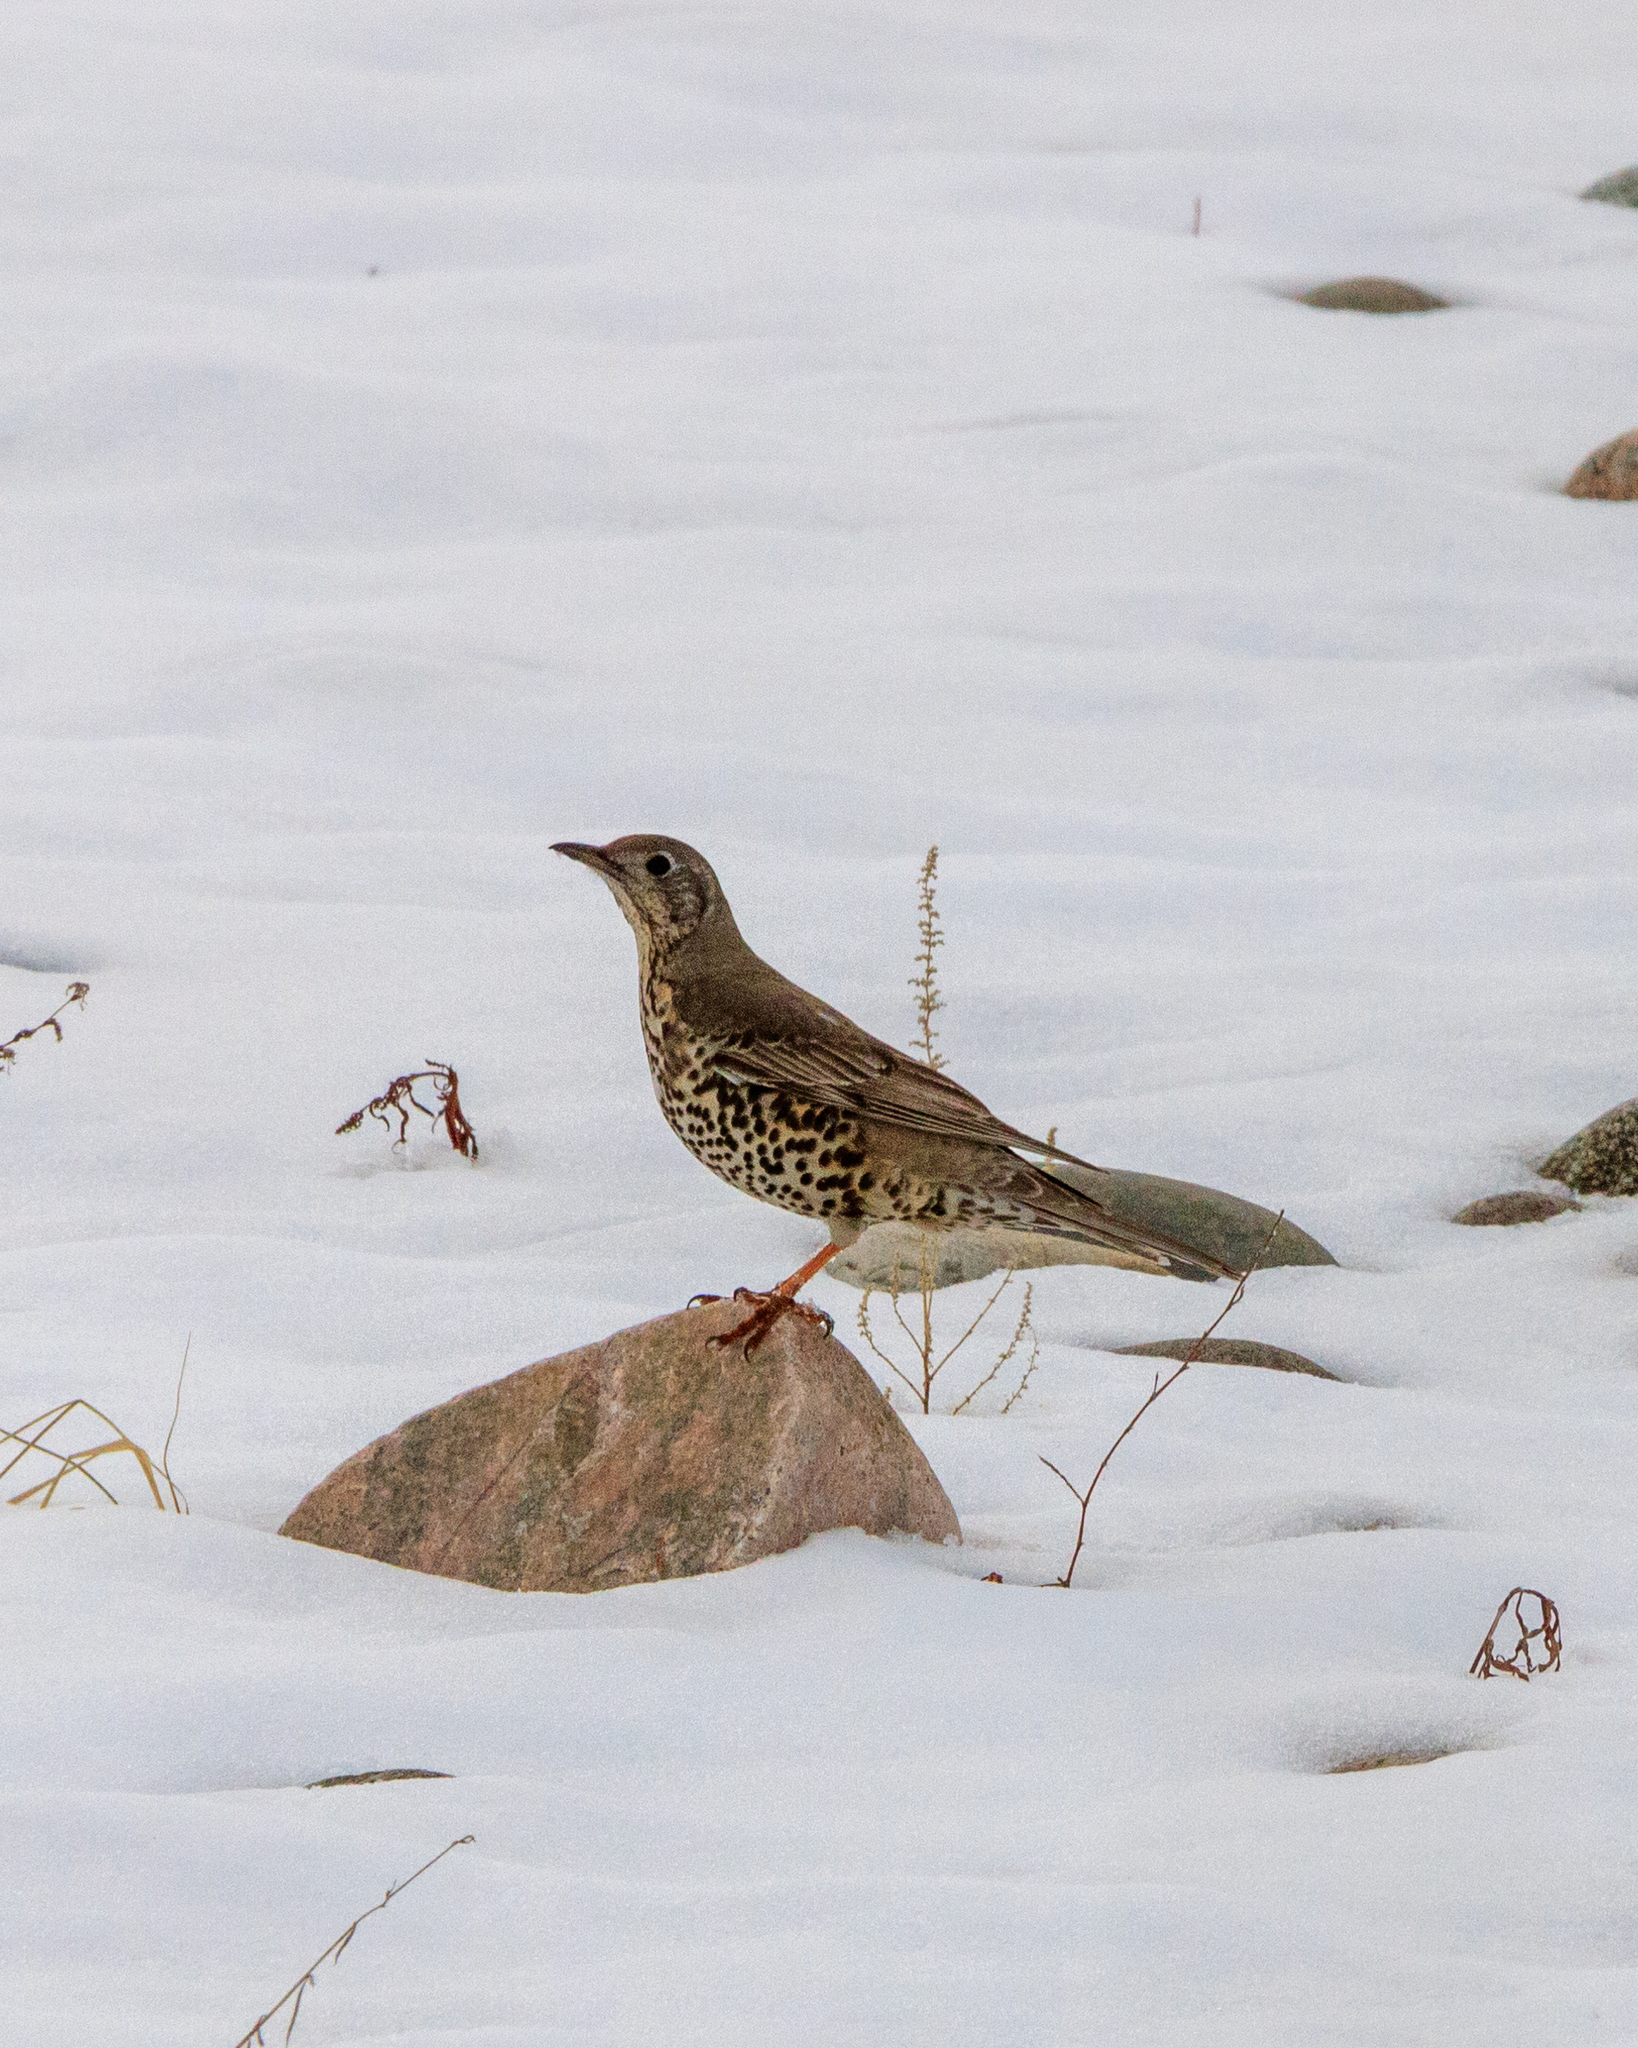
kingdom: Animalia
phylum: Chordata
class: Aves
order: Passeriformes
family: Turdidae
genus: Turdus
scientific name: Turdus viscivorus
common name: Mistle thrush
